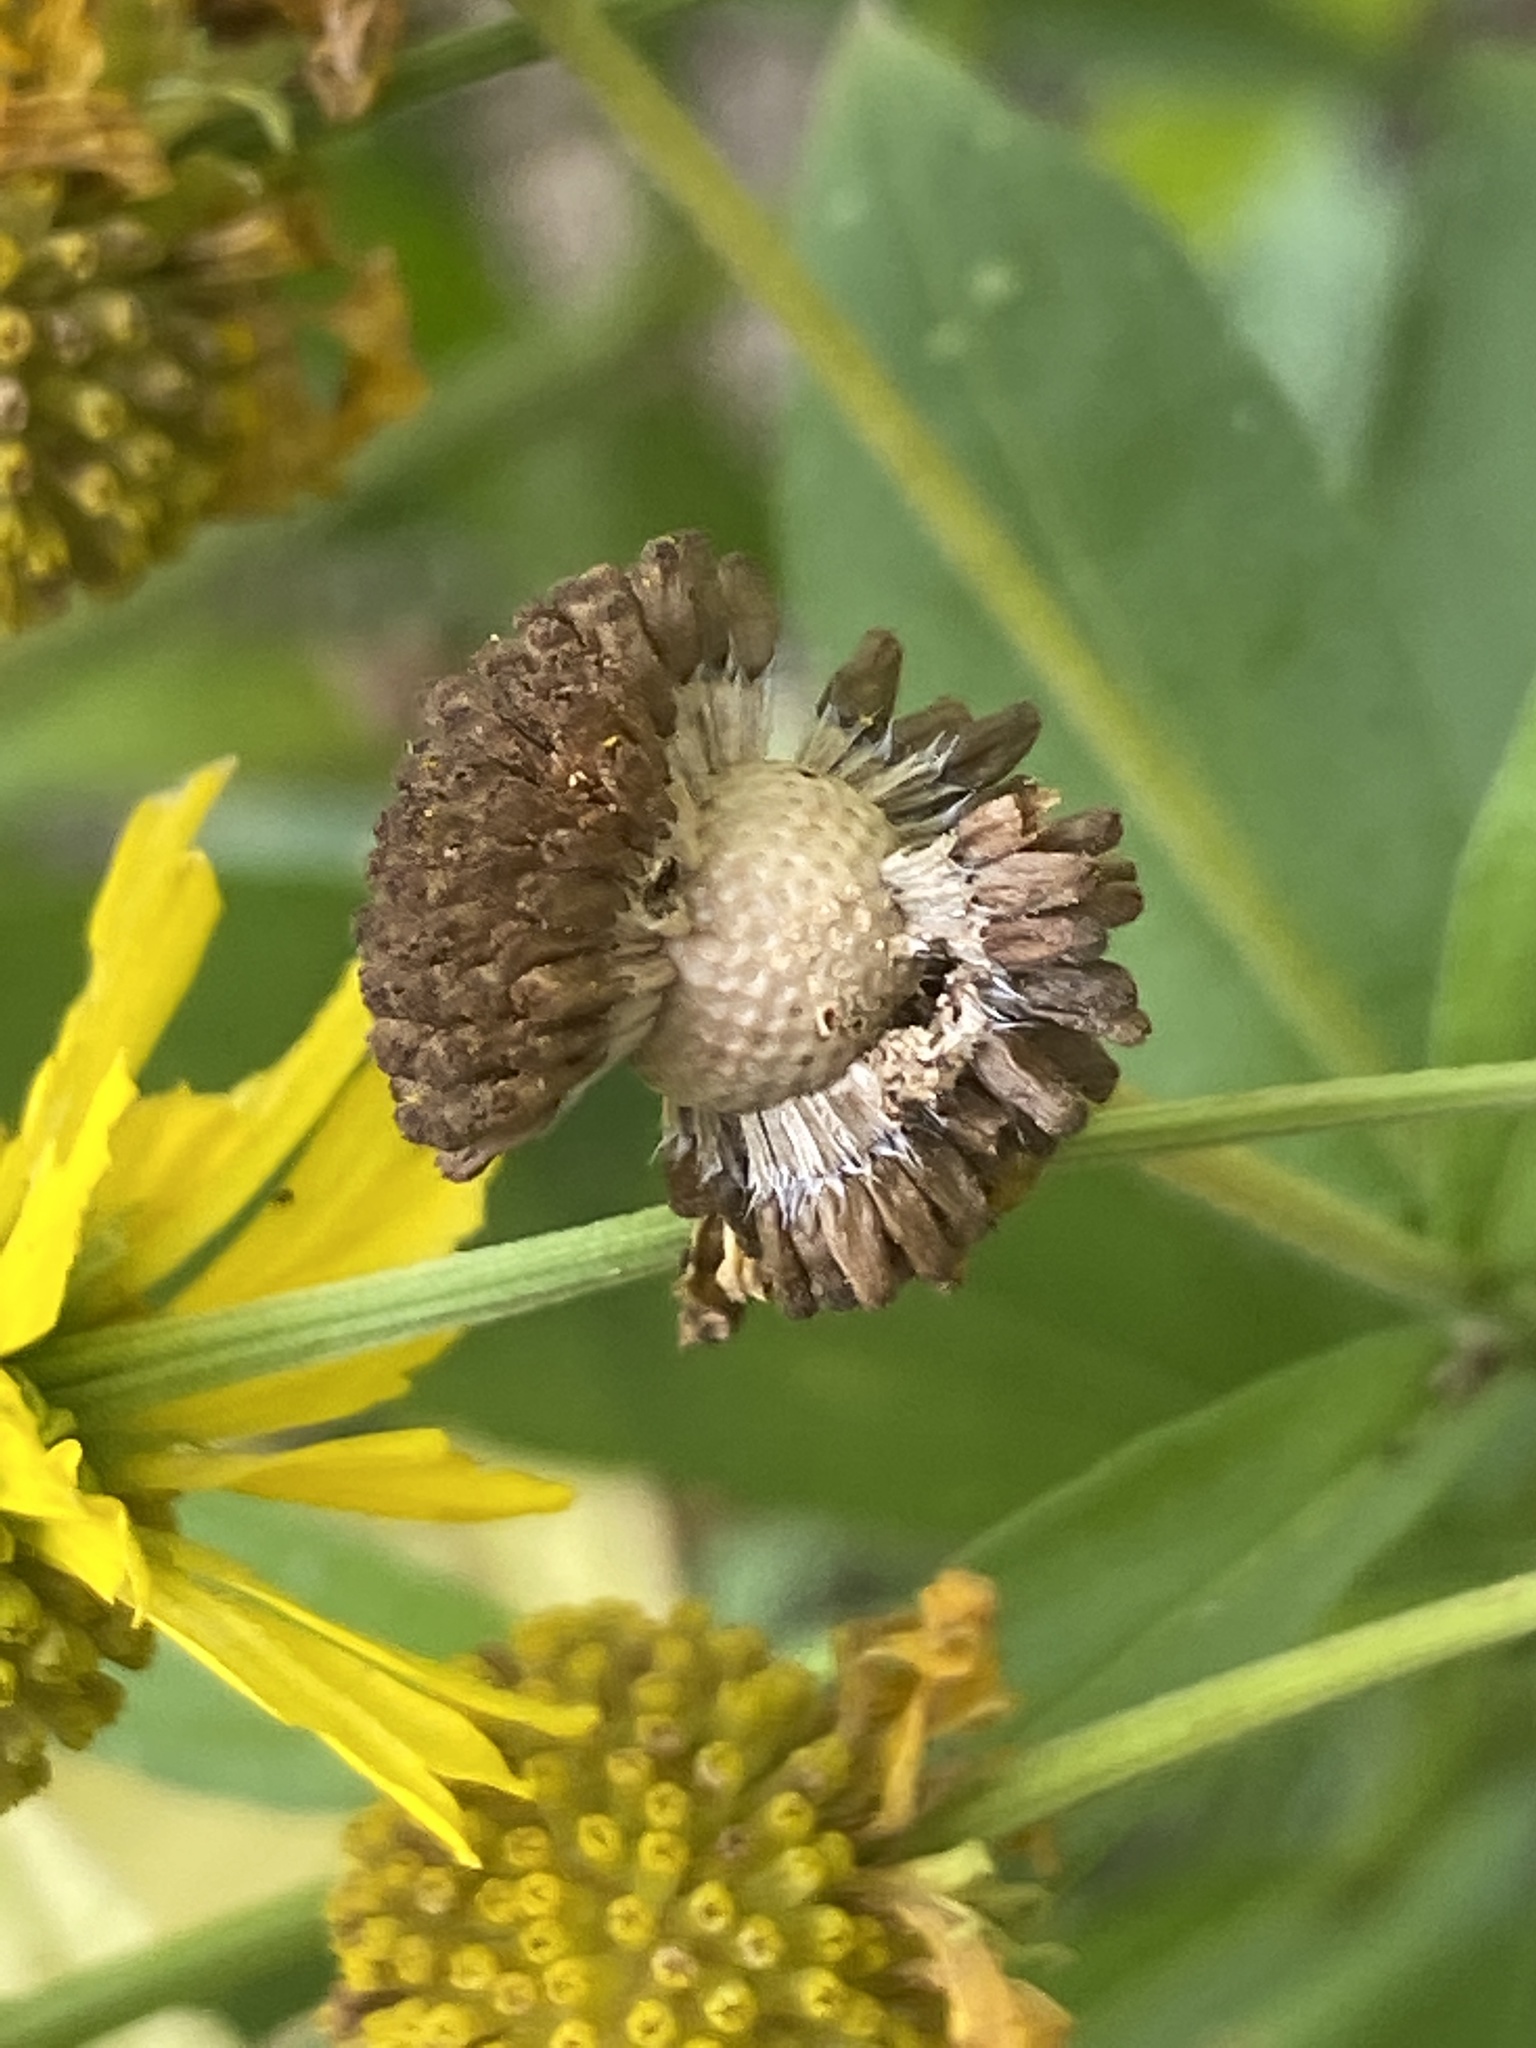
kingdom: Plantae
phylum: Tracheophyta
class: Magnoliopsida
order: Asterales
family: Asteraceae
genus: Helenium
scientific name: Helenium autumnale
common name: Sneezeweed
